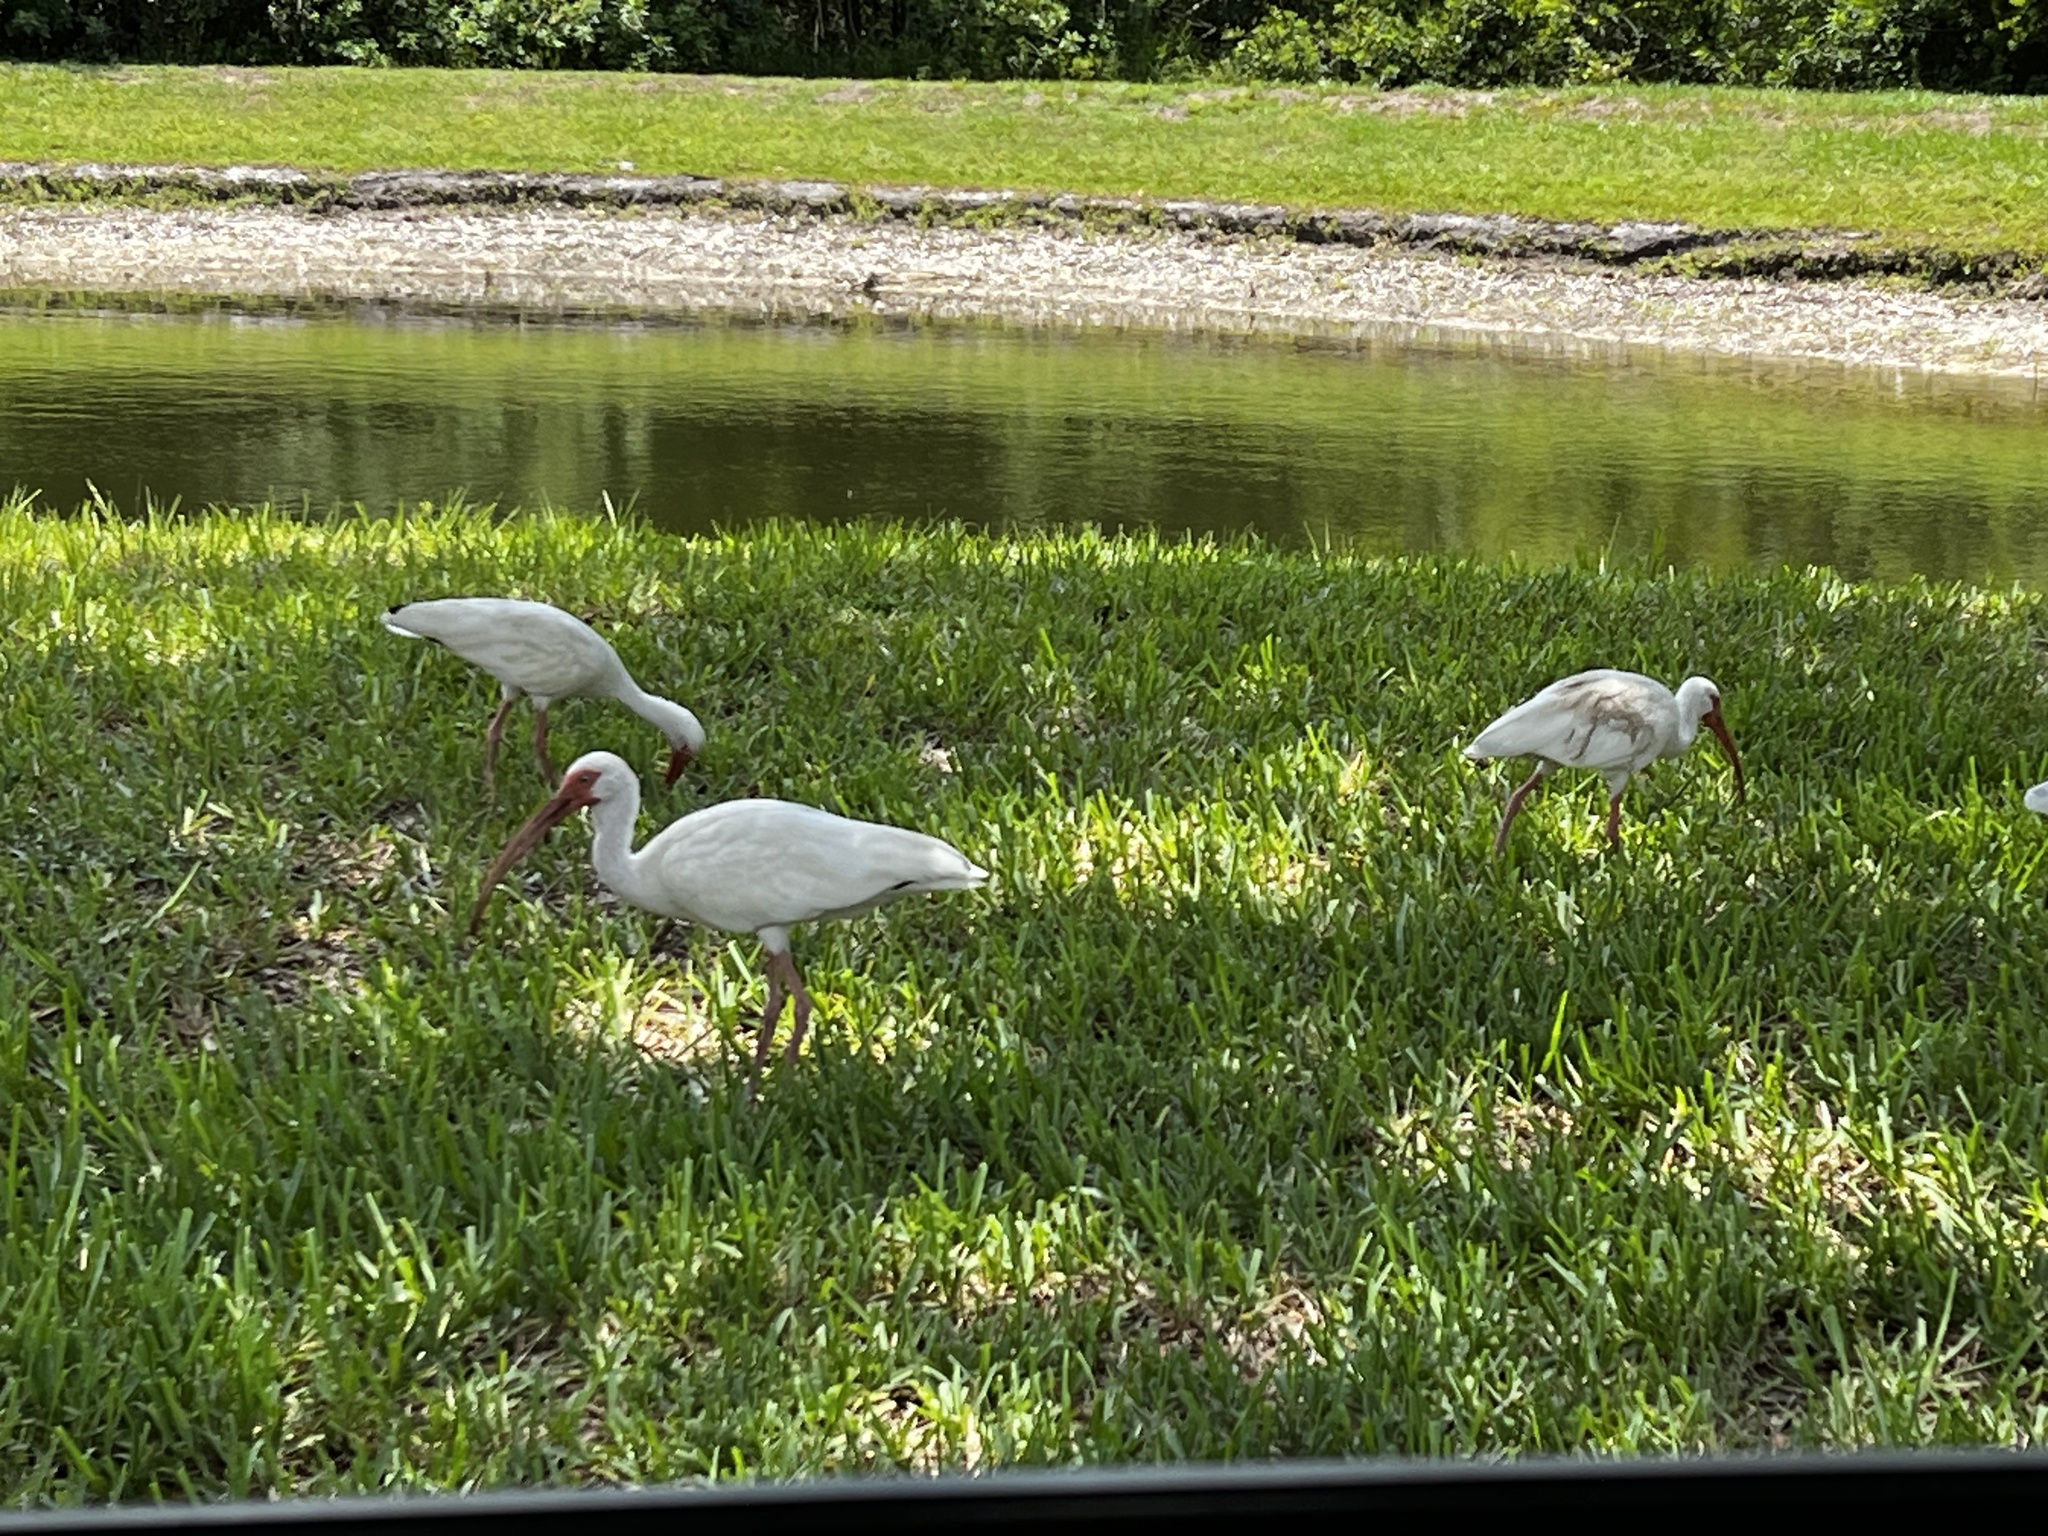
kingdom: Animalia
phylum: Chordata
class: Aves
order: Pelecaniformes
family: Threskiornithidae
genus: Eudocimus
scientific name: Eudocimus albus
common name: White ibis
